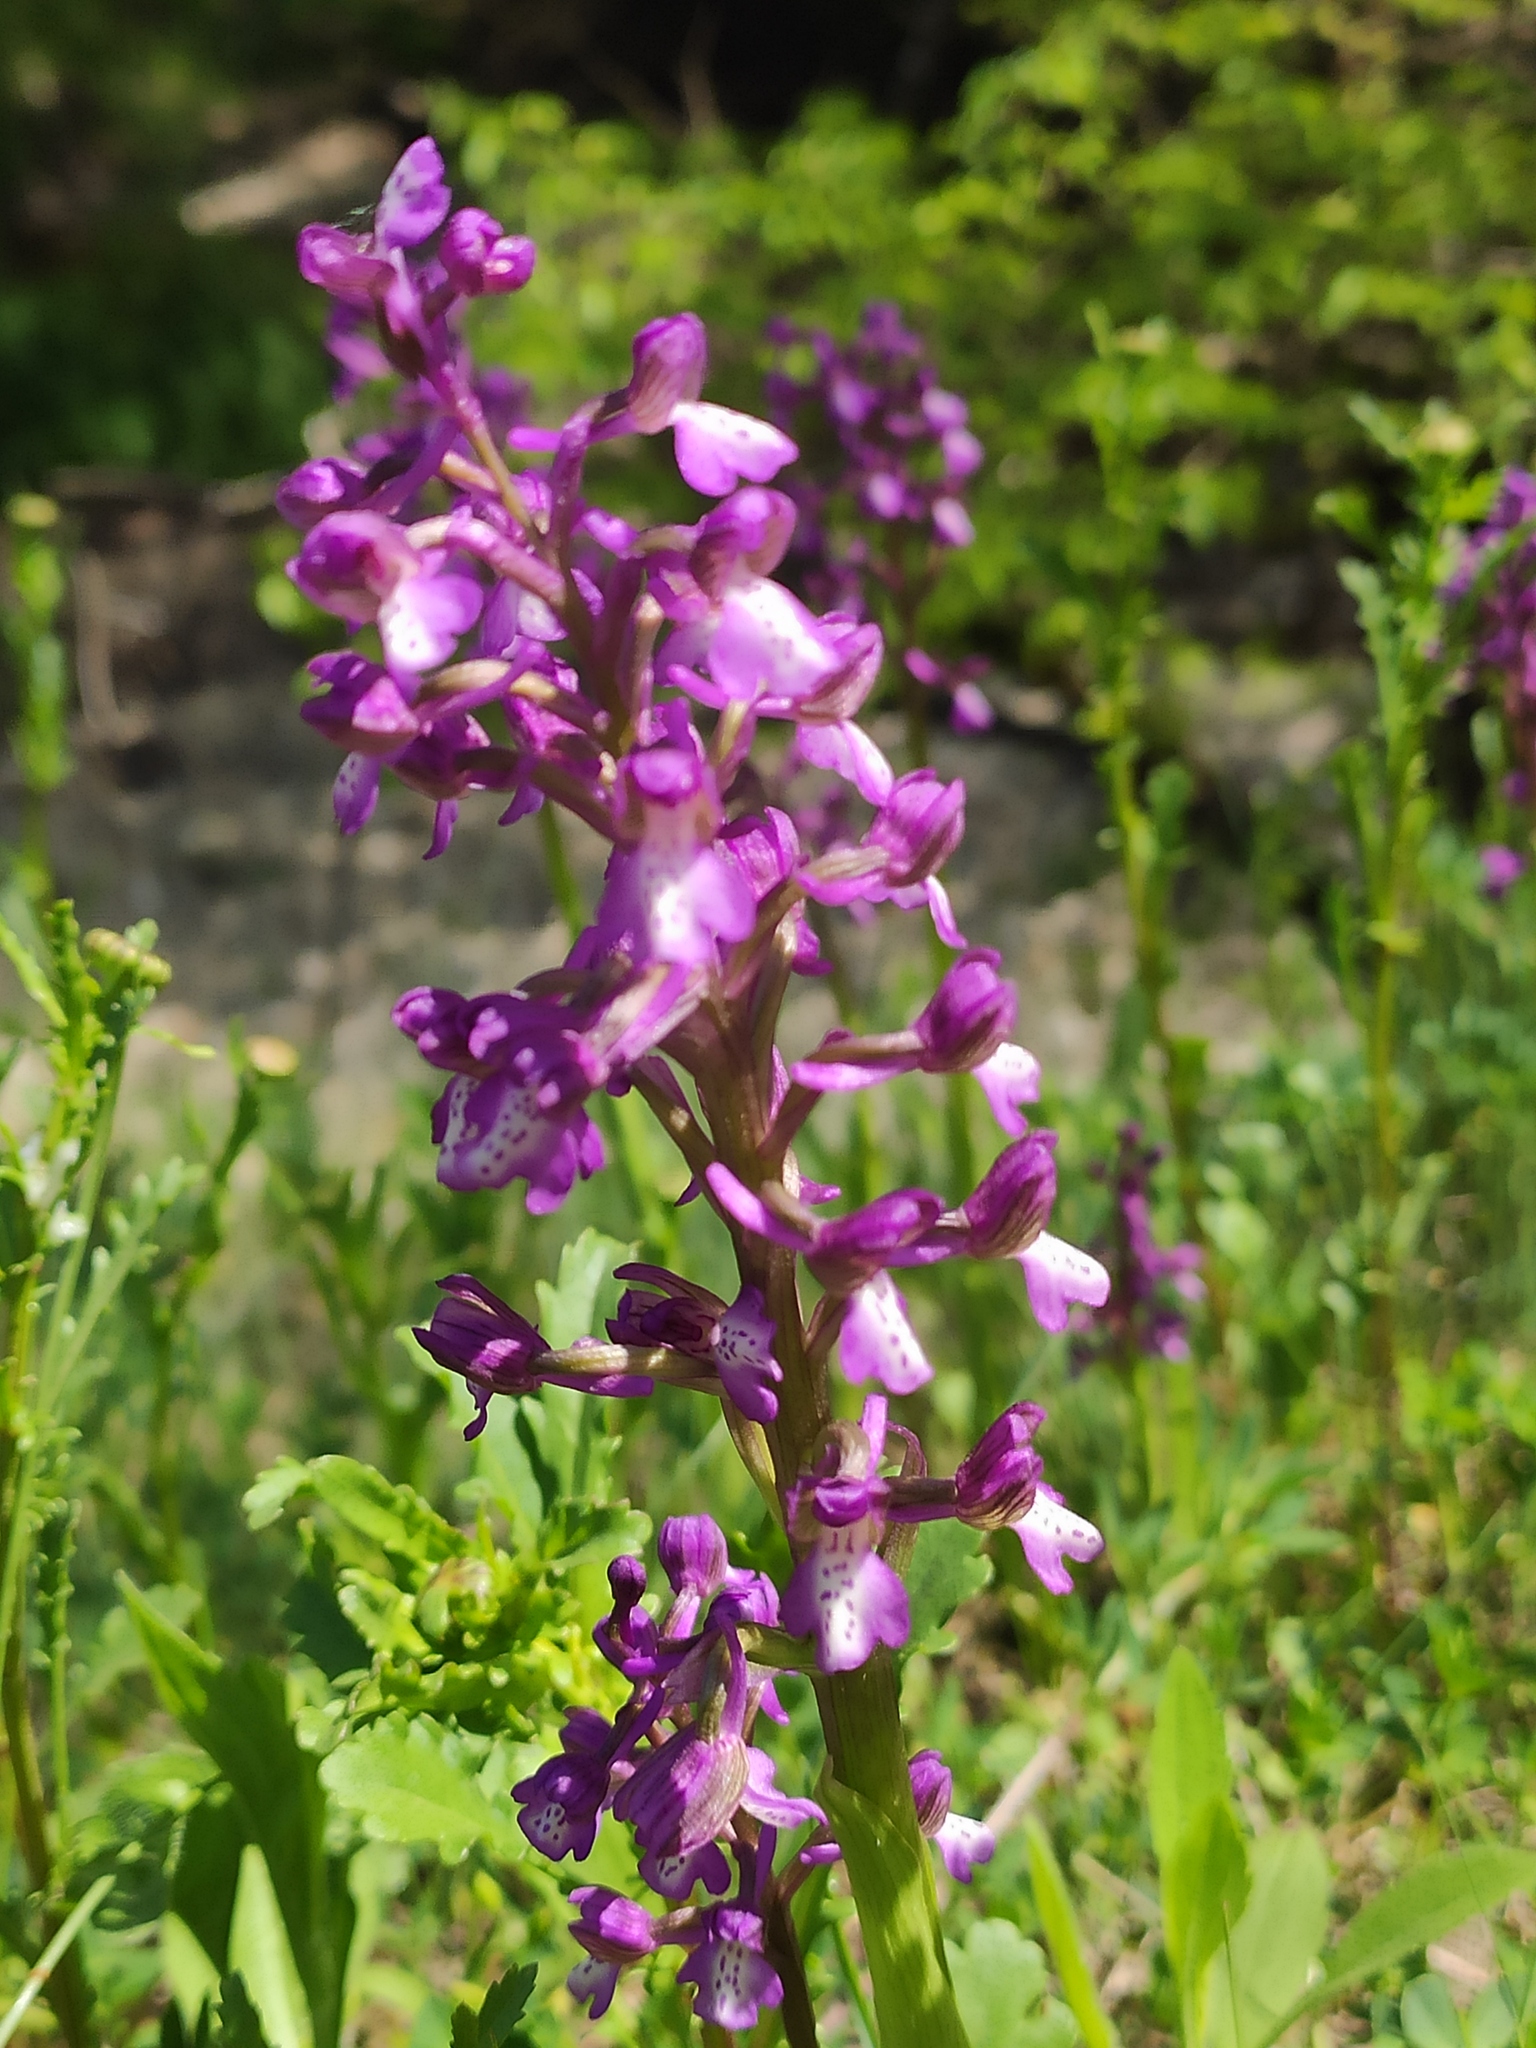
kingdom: Plantae
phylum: Tracheophyta
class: Liliopsida
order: Asparagales
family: Orchidaceae
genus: Anacamptis
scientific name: Anacamptis morio
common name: Green-winged orchid
